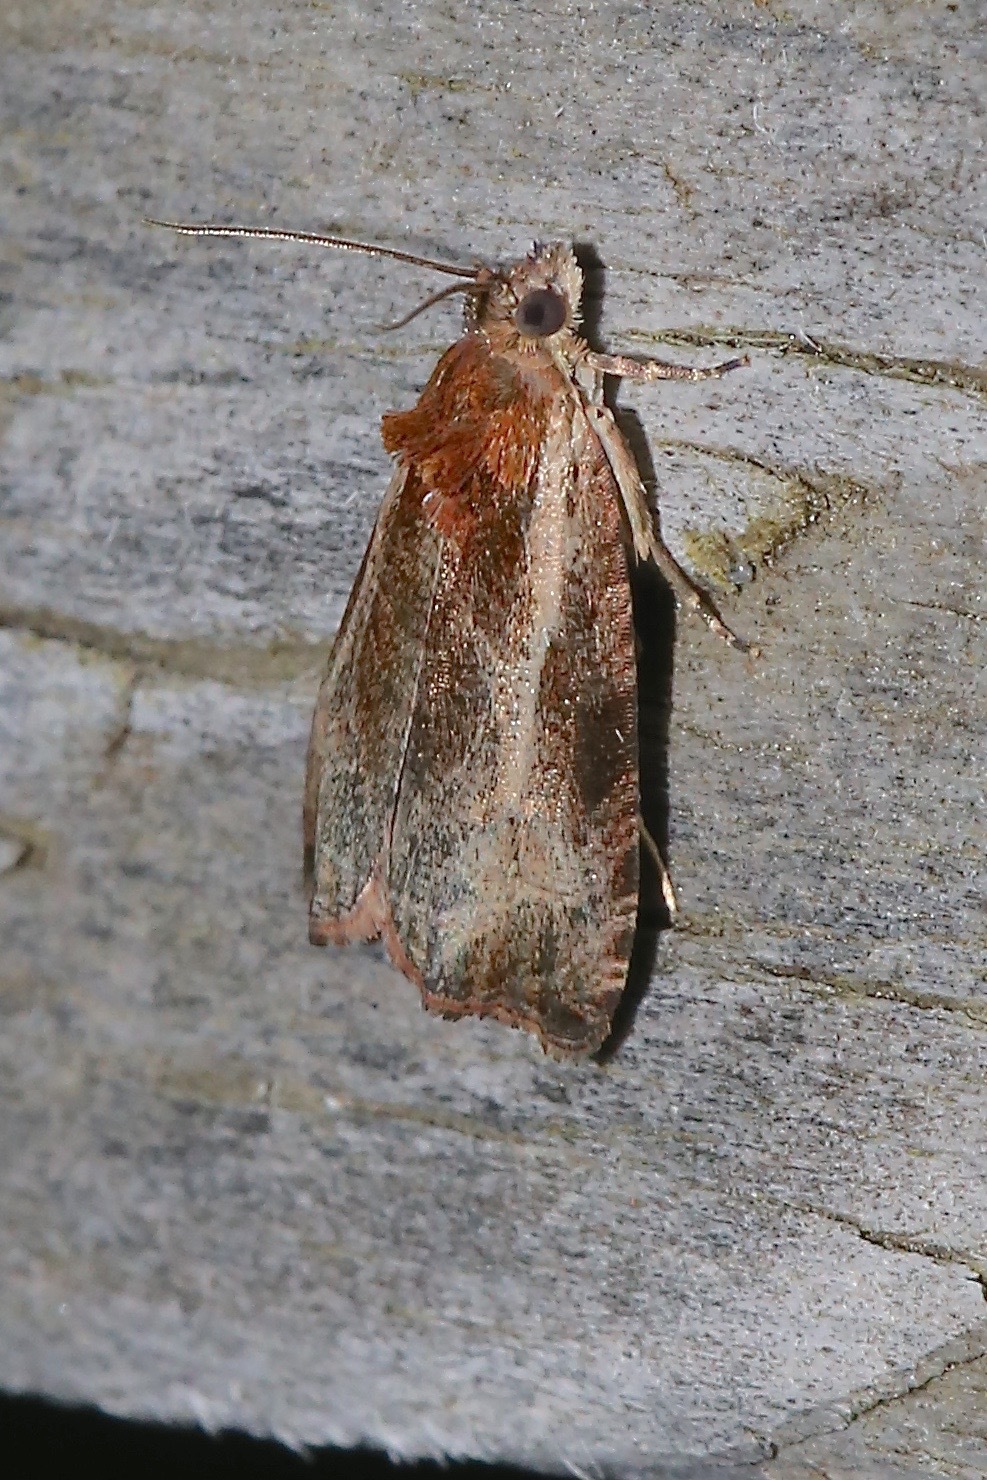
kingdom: Animalia
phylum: Arthropoda
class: Insecta
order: Lepidoptera
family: Tortricidae
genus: Olethreutes
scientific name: Olethreutes inornatana
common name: Inornate olethreutes moth
